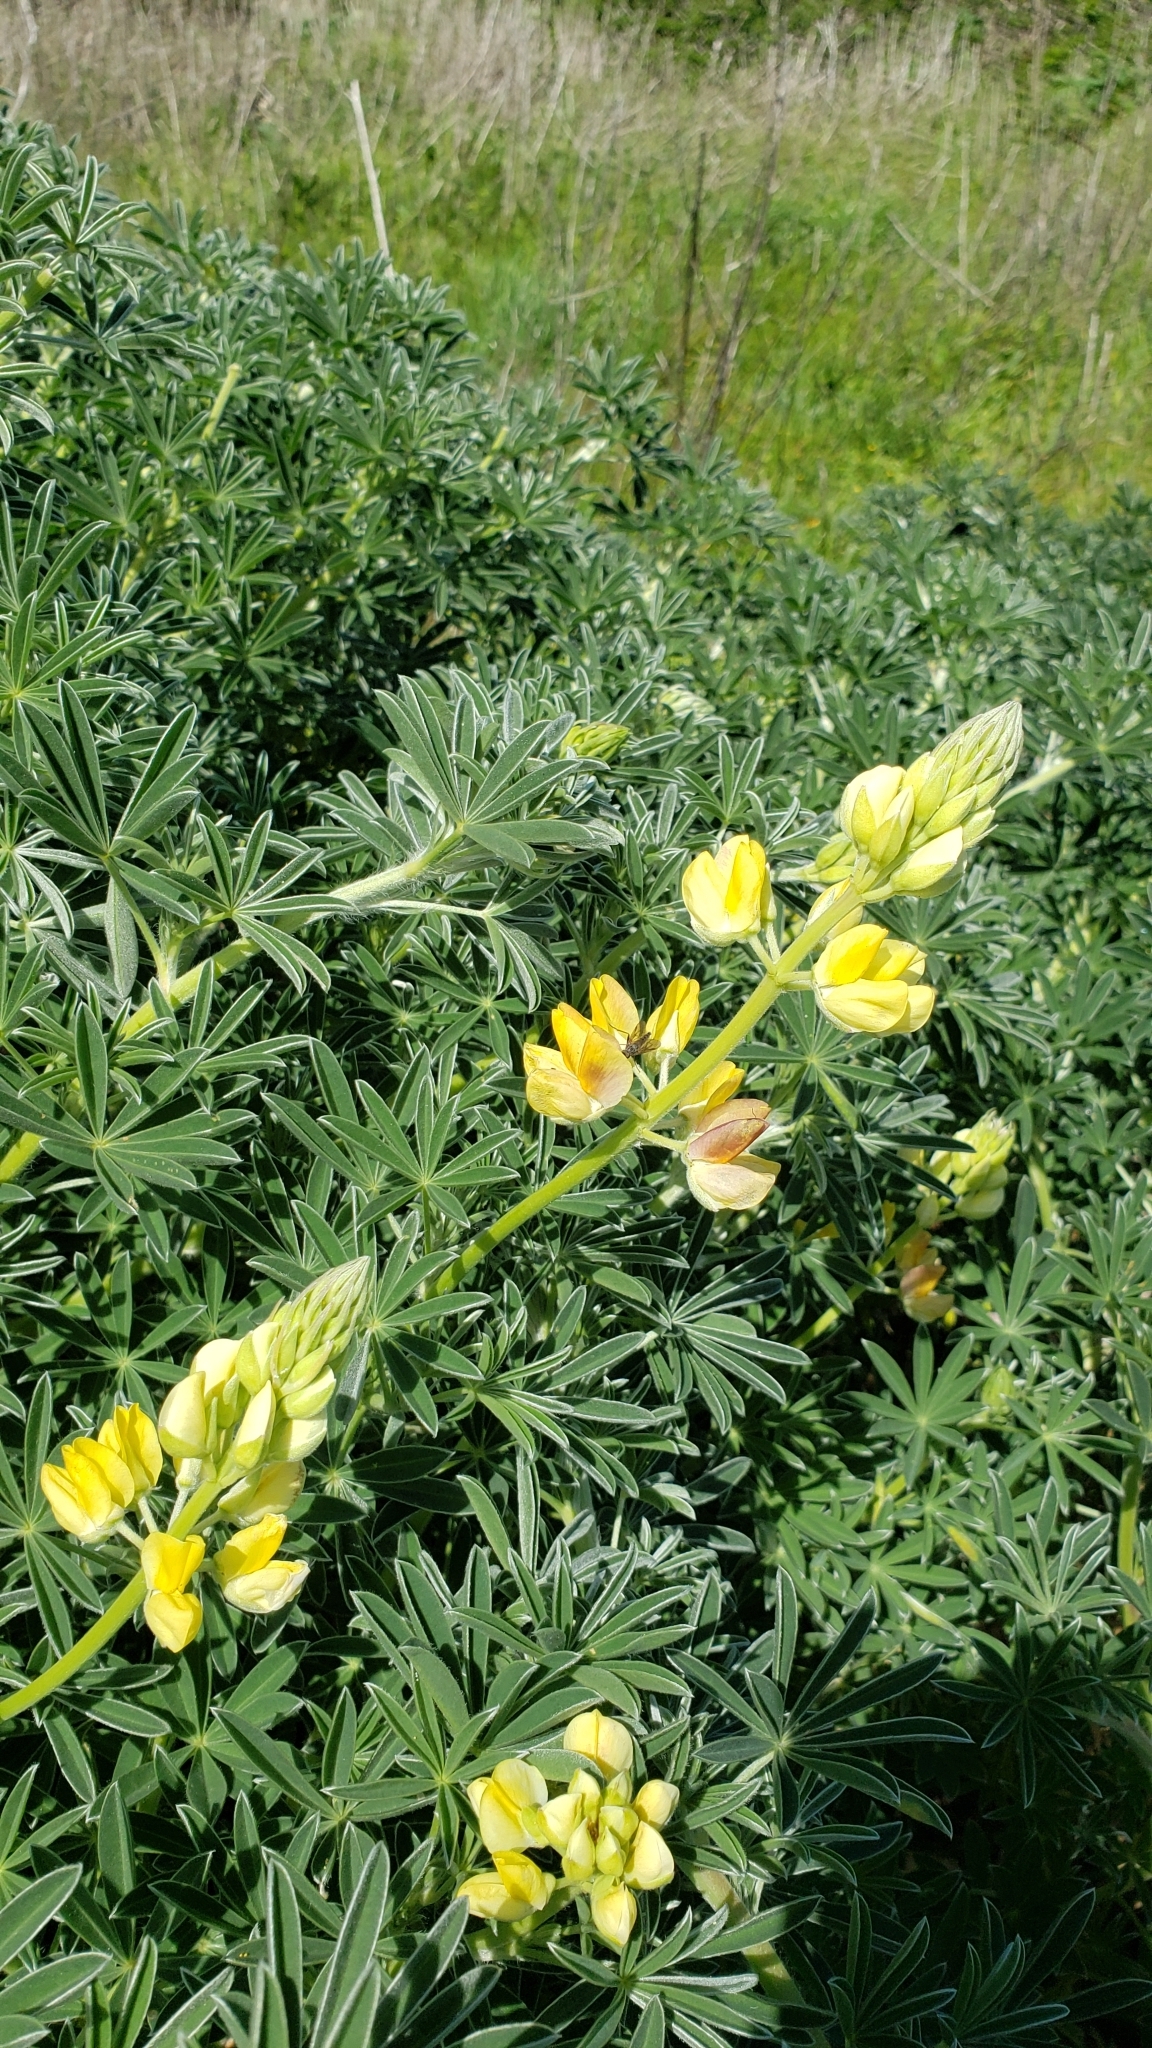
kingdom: Plantae
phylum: Tracheophyta
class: Magnoliopsida
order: Fabales
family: Fabaceae
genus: Lupinus
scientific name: Lupinus arboreus
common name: Yellow bush lupine
